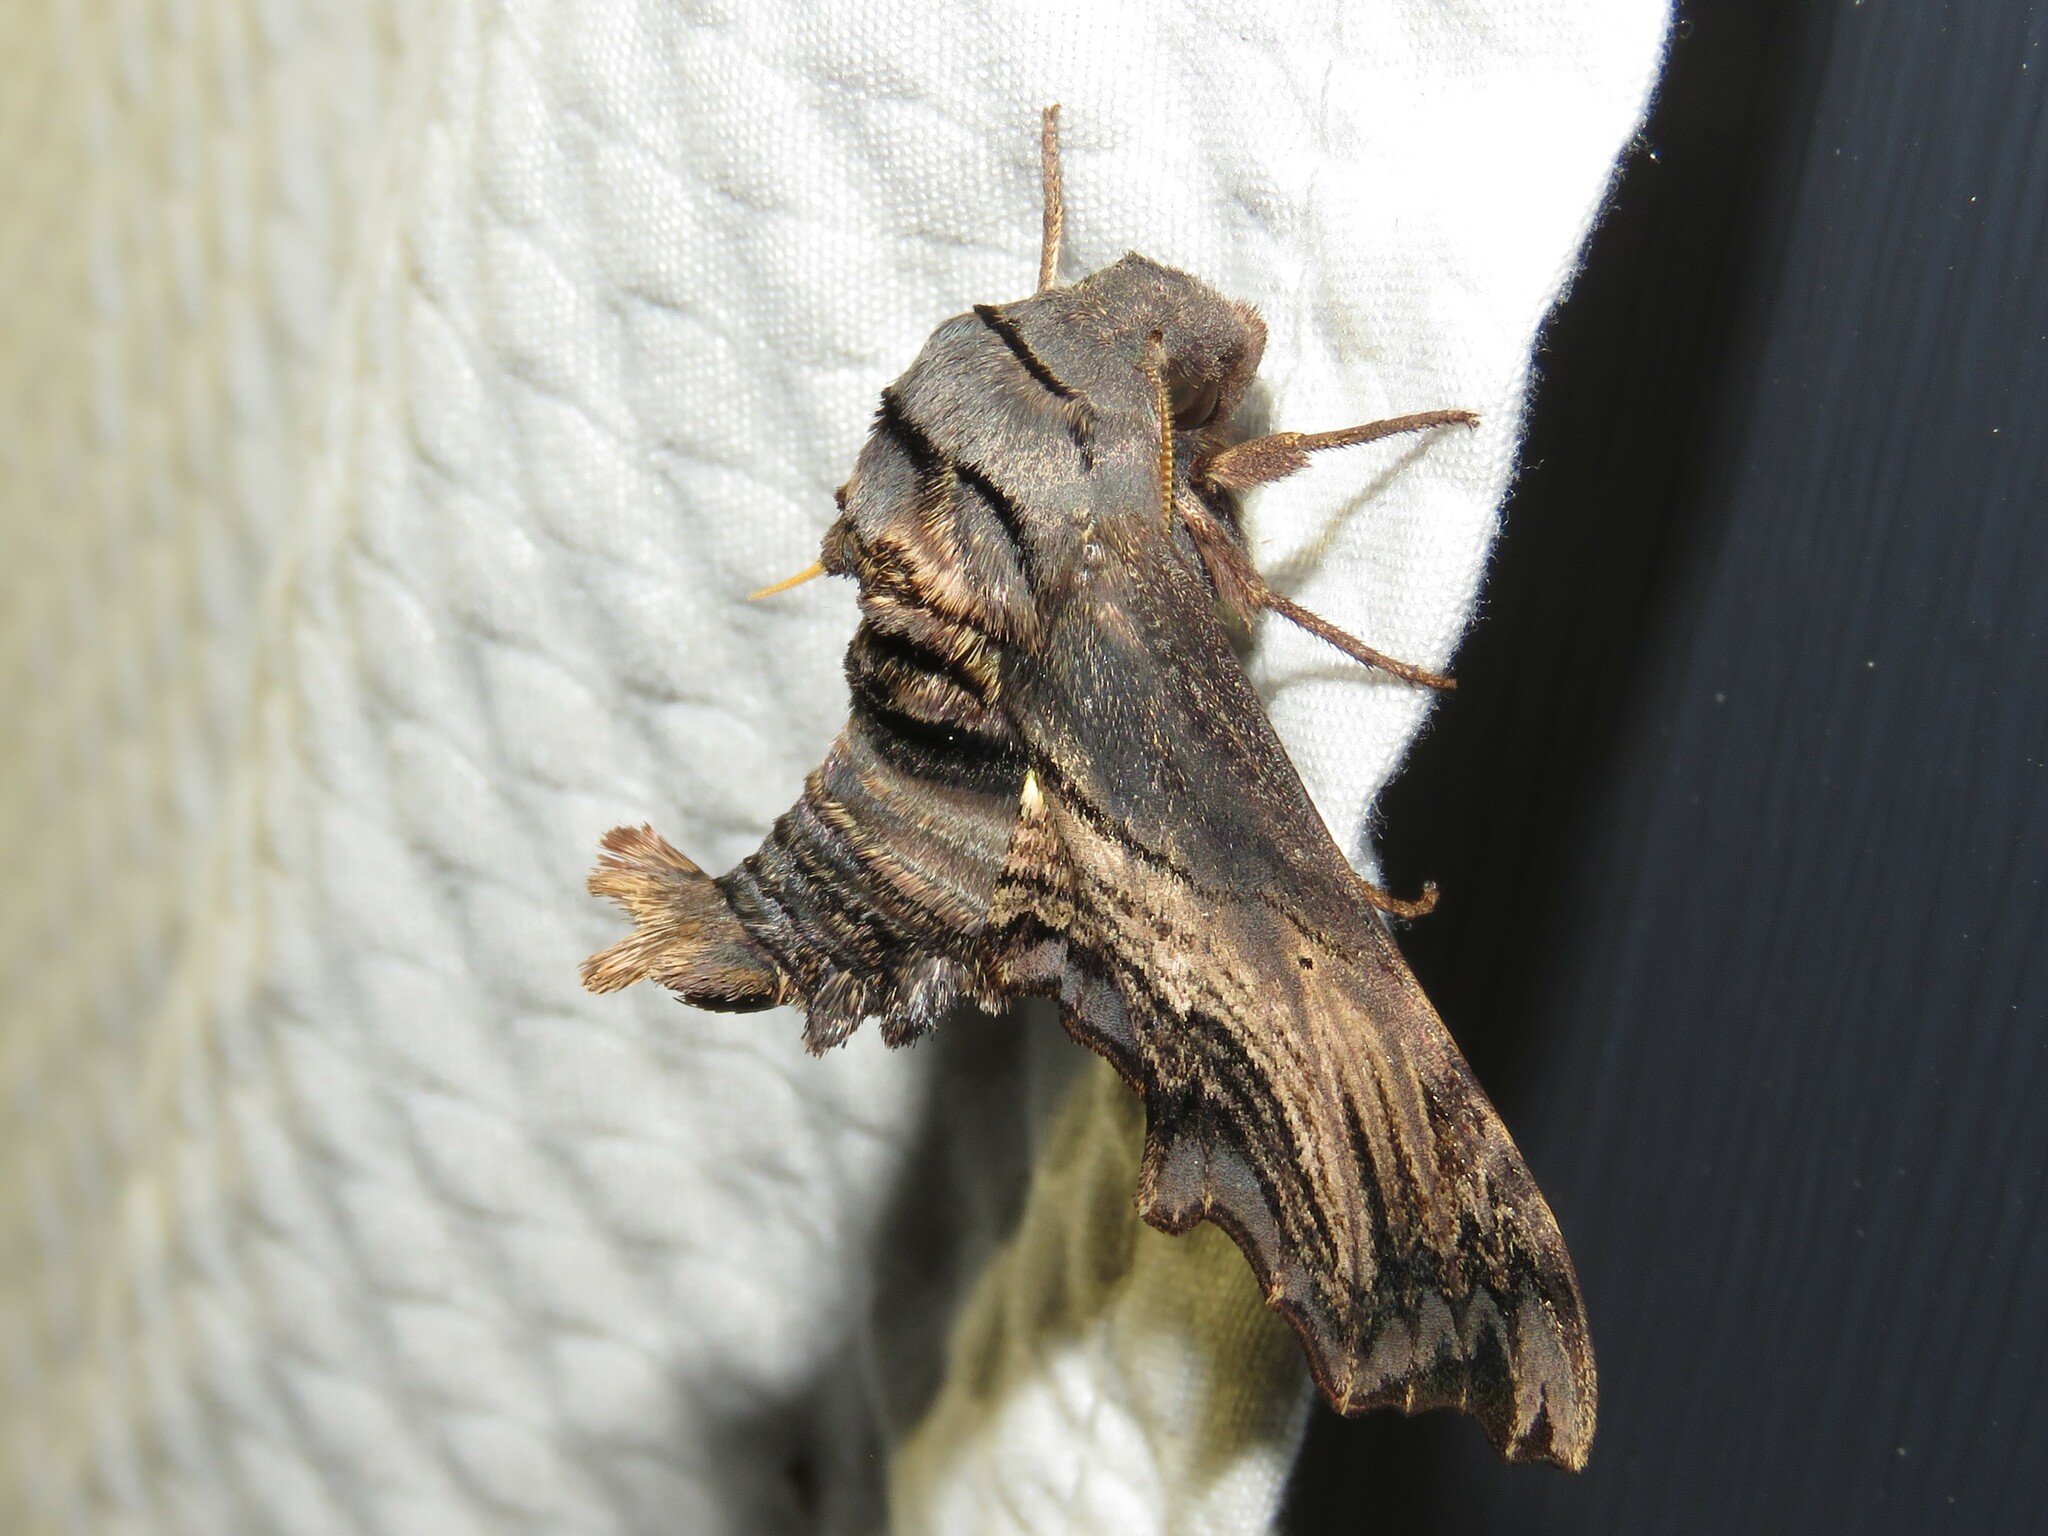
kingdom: Animalia
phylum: Arthropoda
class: Insecta
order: Lepidoptera
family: Sphingidae
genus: Sphecodina
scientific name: Sphecodina abbottii
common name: Abbott's sphinx
